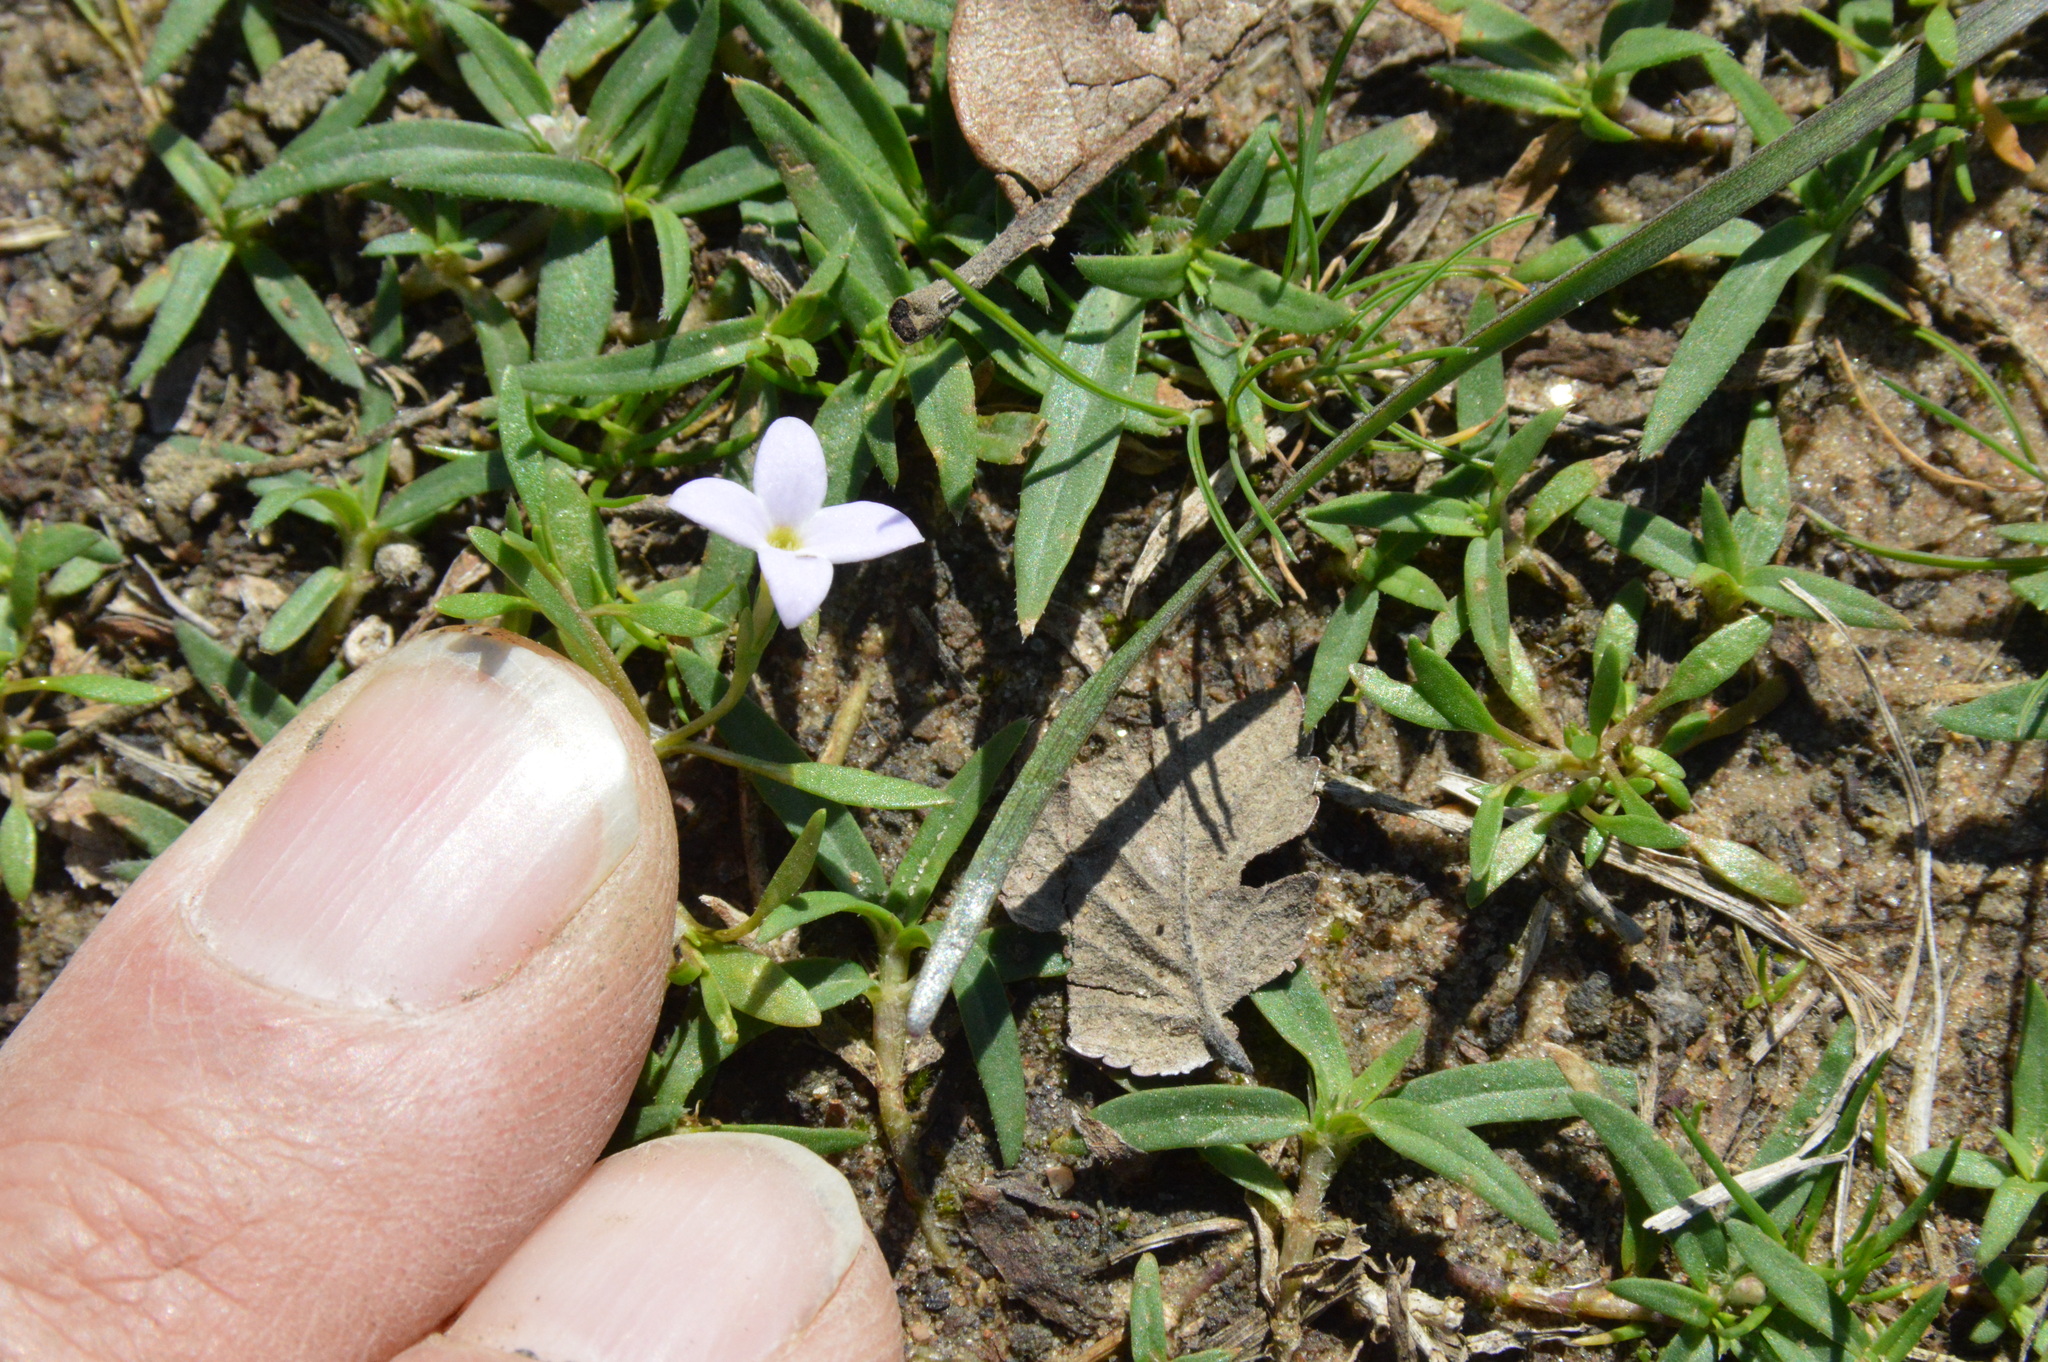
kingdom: Plantae
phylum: Tracheophyta
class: Magnoliopsida
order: Gentianales
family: Rubiaceae
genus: Houstonia
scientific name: Houstonia rosea
